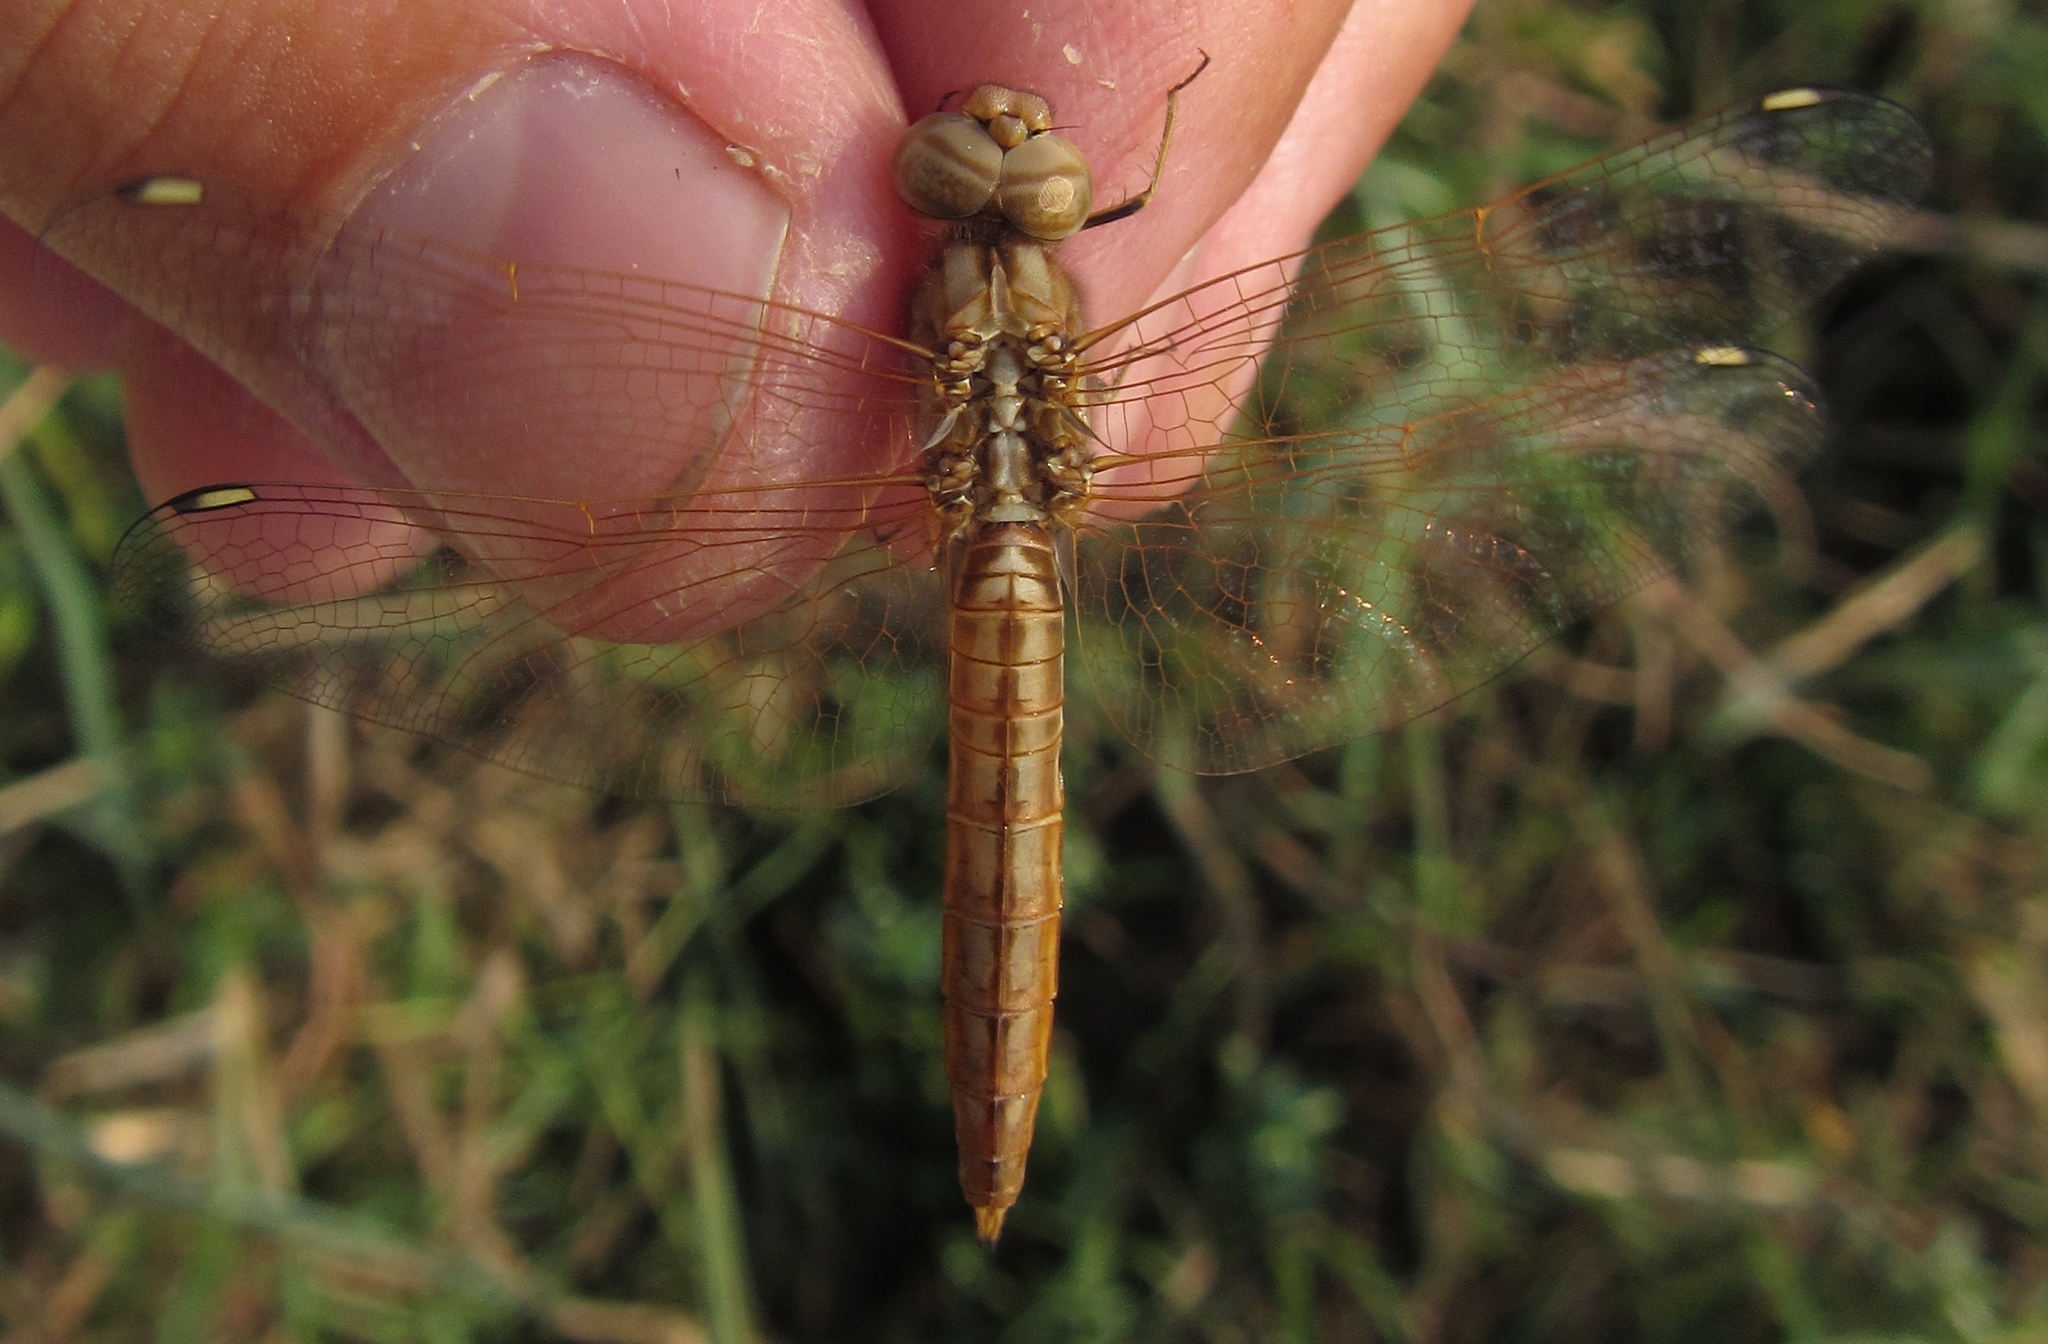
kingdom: Animalia
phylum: Arthropoda
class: Insecta
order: Odonata
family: Libellulidae
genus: Brachythemis
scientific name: Brachythemis lacustris
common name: Red groundling
